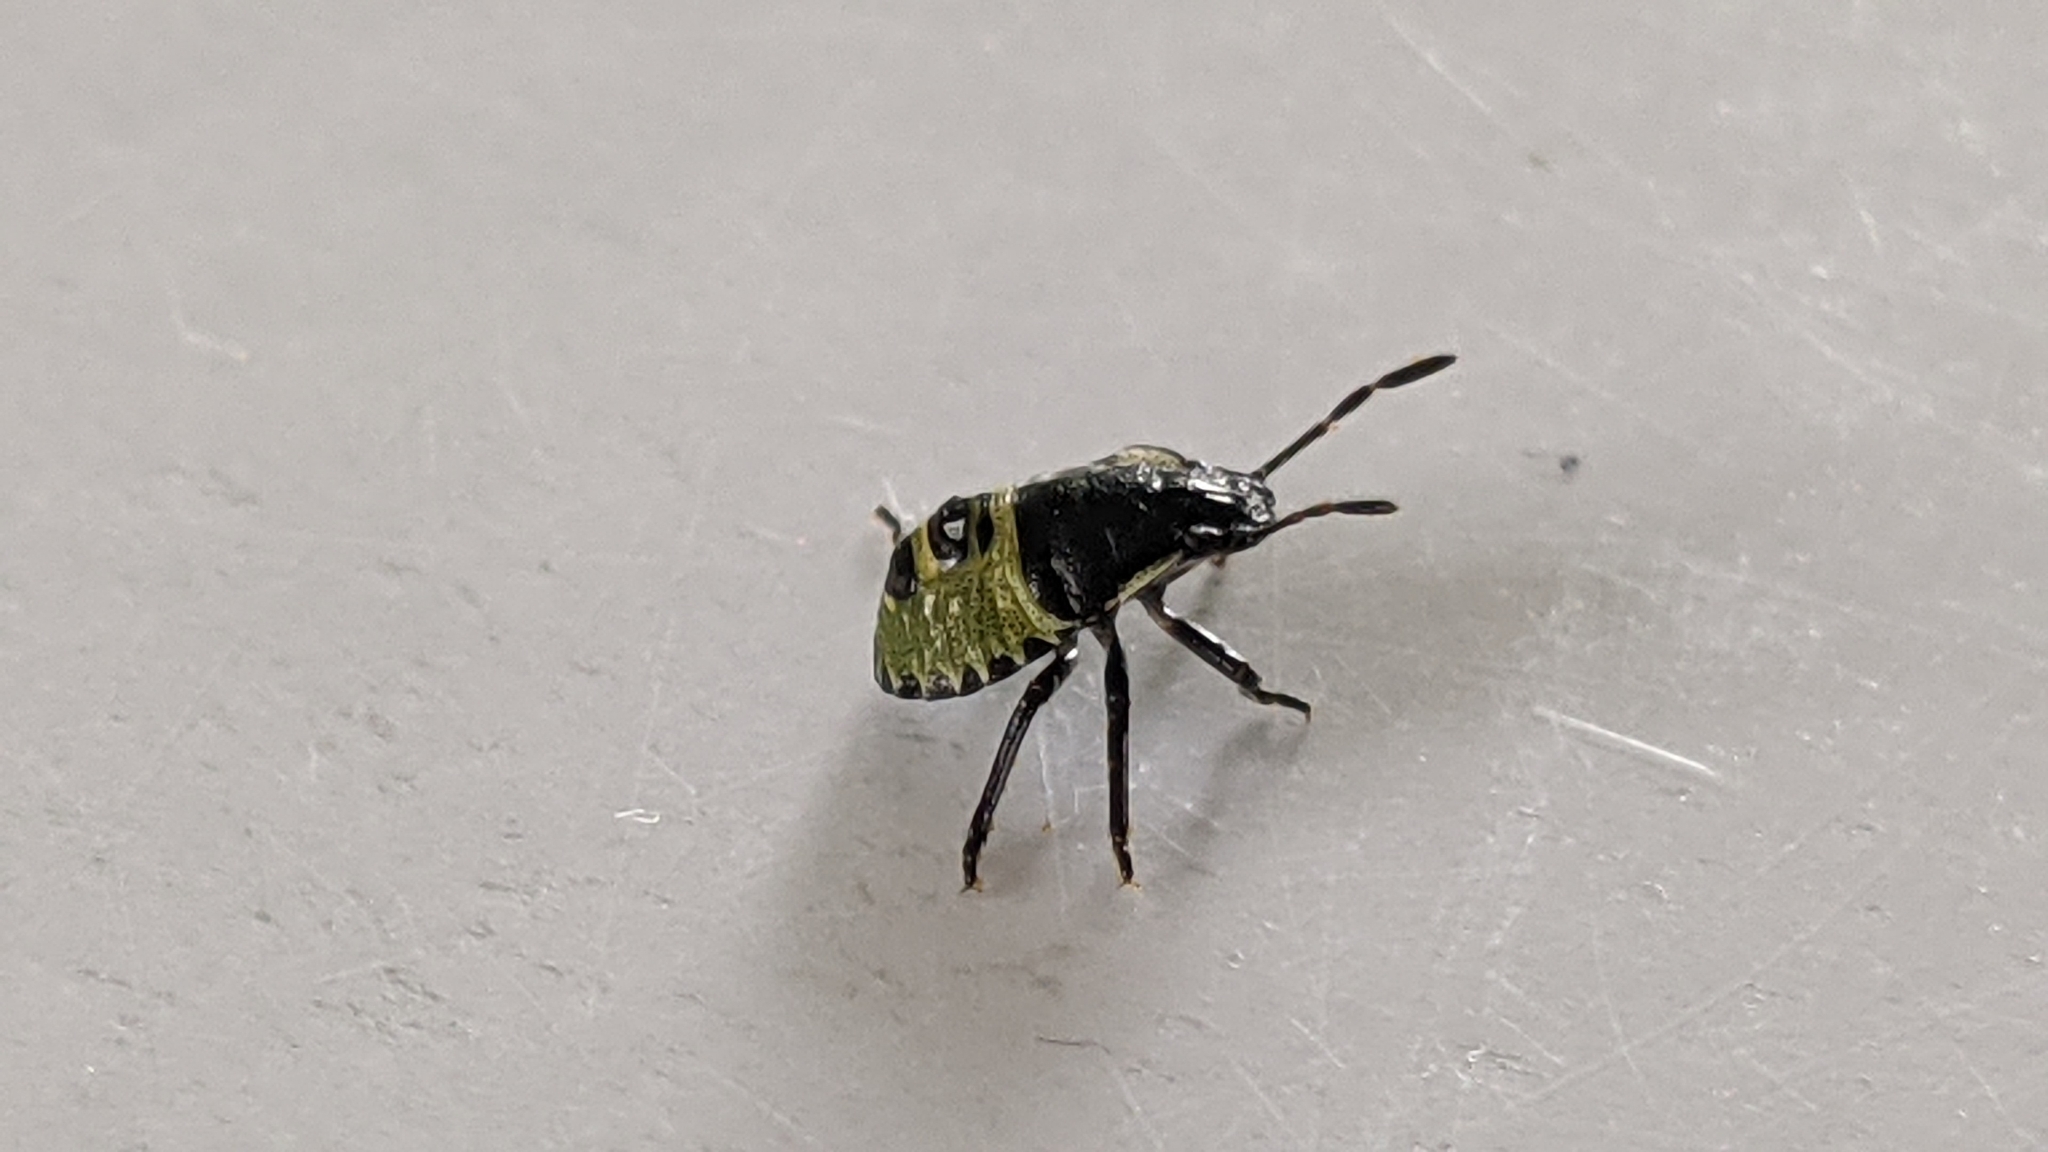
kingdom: Animalia
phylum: Arthropoda
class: Insecta
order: Hemiptera
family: Pentatomidae
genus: Palomena
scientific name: Palomena prasina
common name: Green shieldbug
